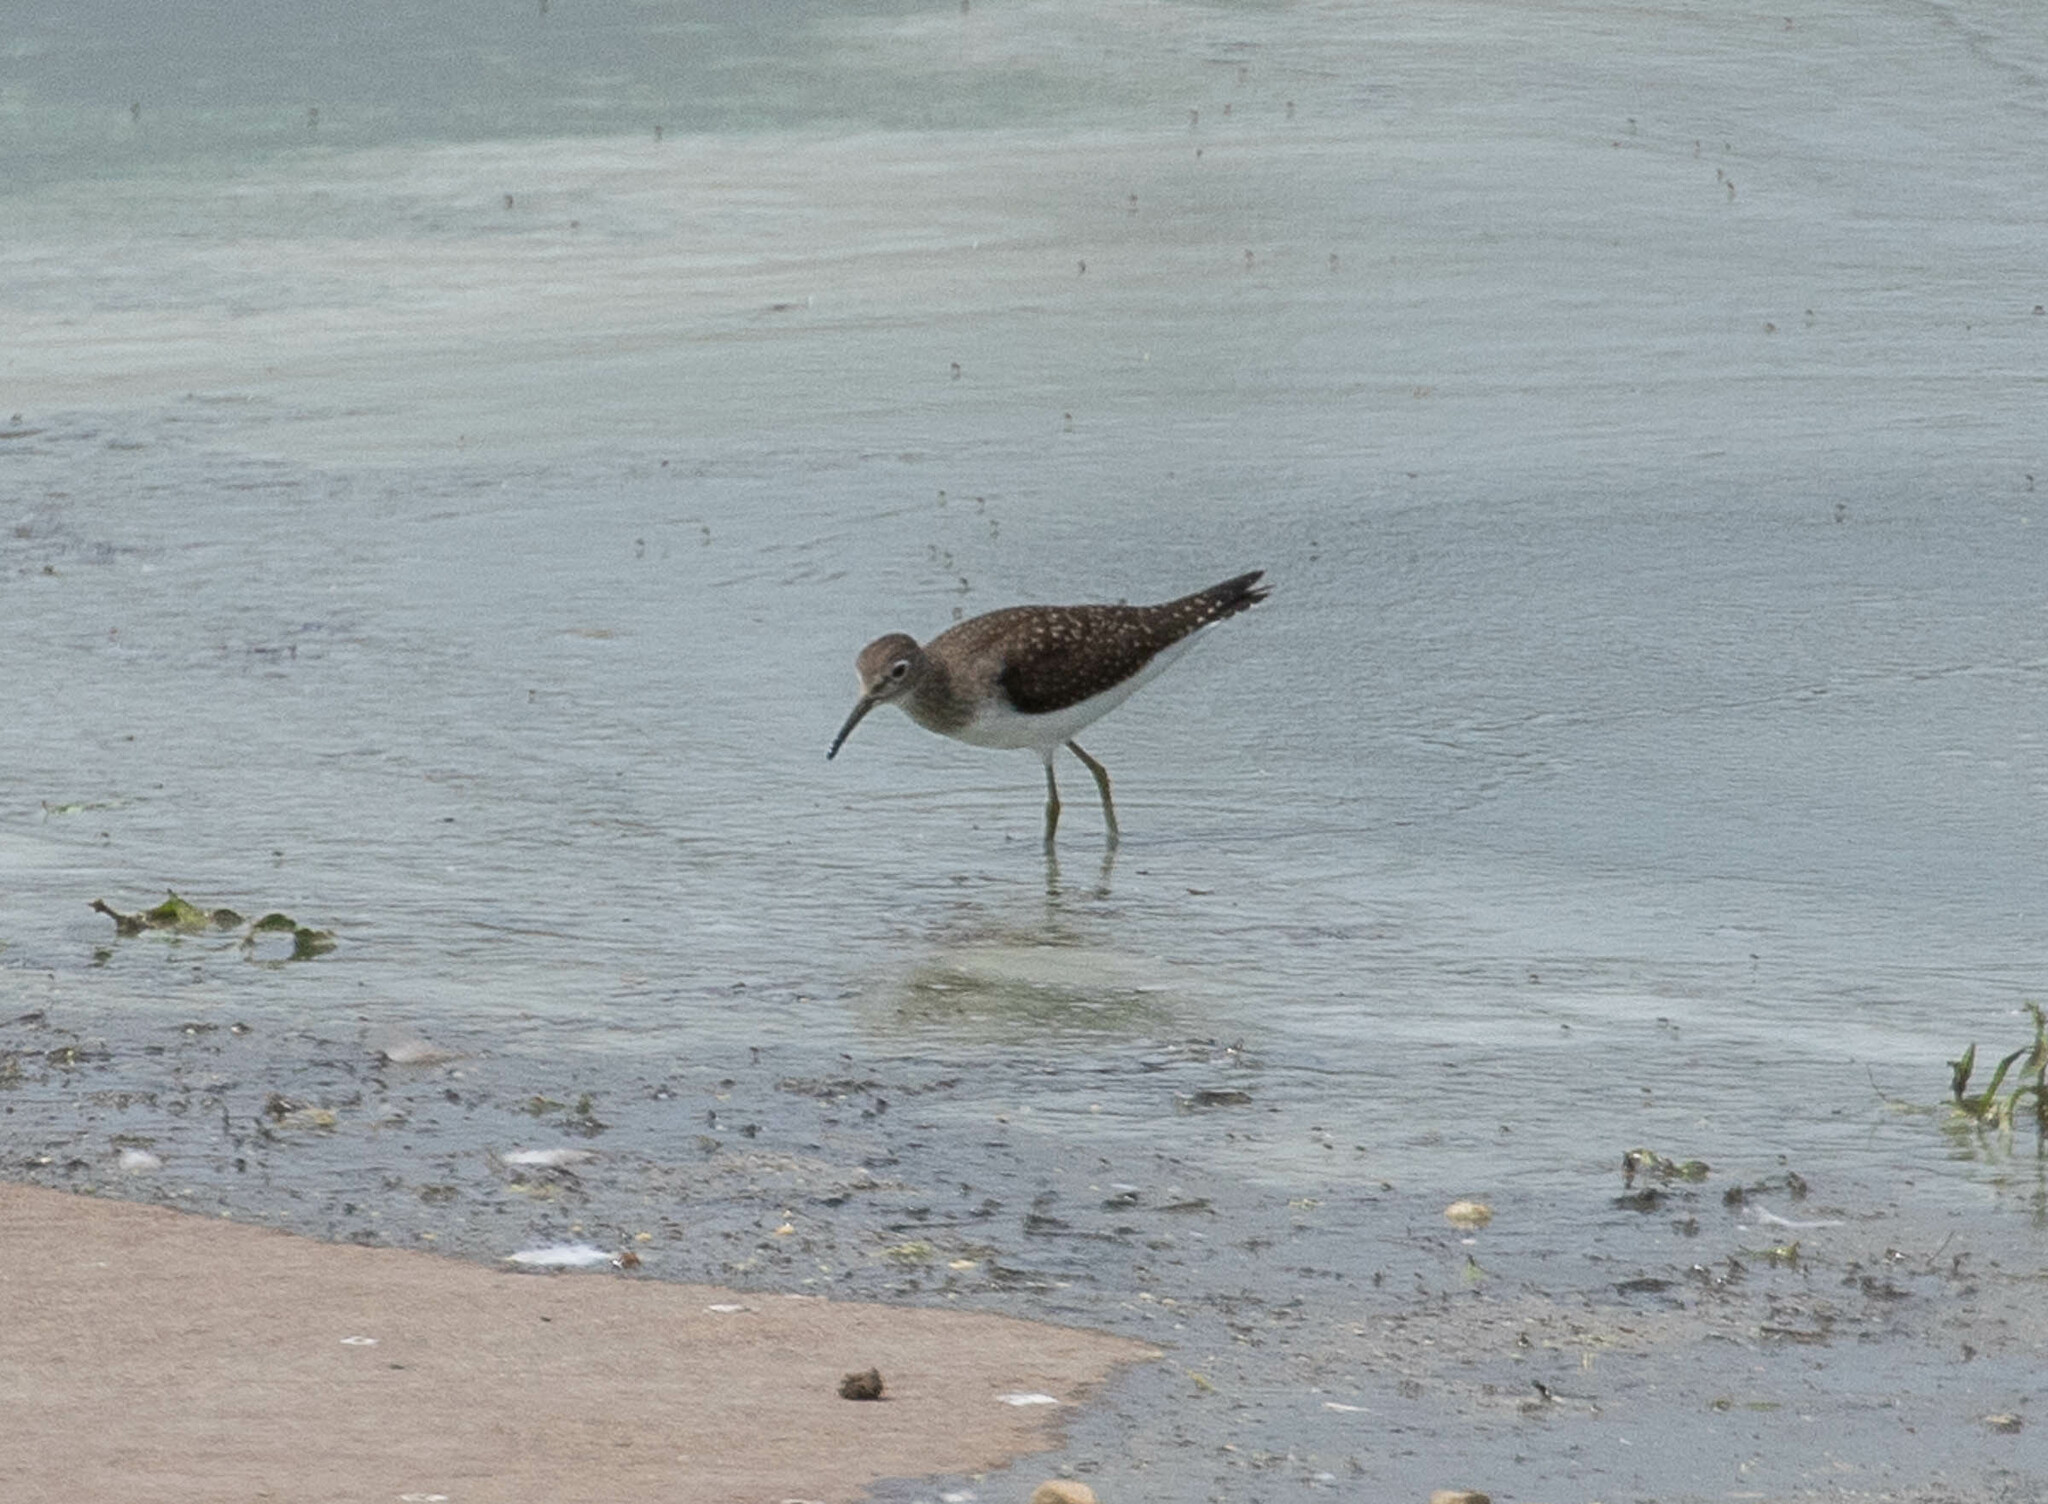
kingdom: Animalia
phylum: Chordata
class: Aves
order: Charadriiformes
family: Scolopacidae
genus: Tringa
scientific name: Tringa solitaria
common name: Solitary sandpiper
